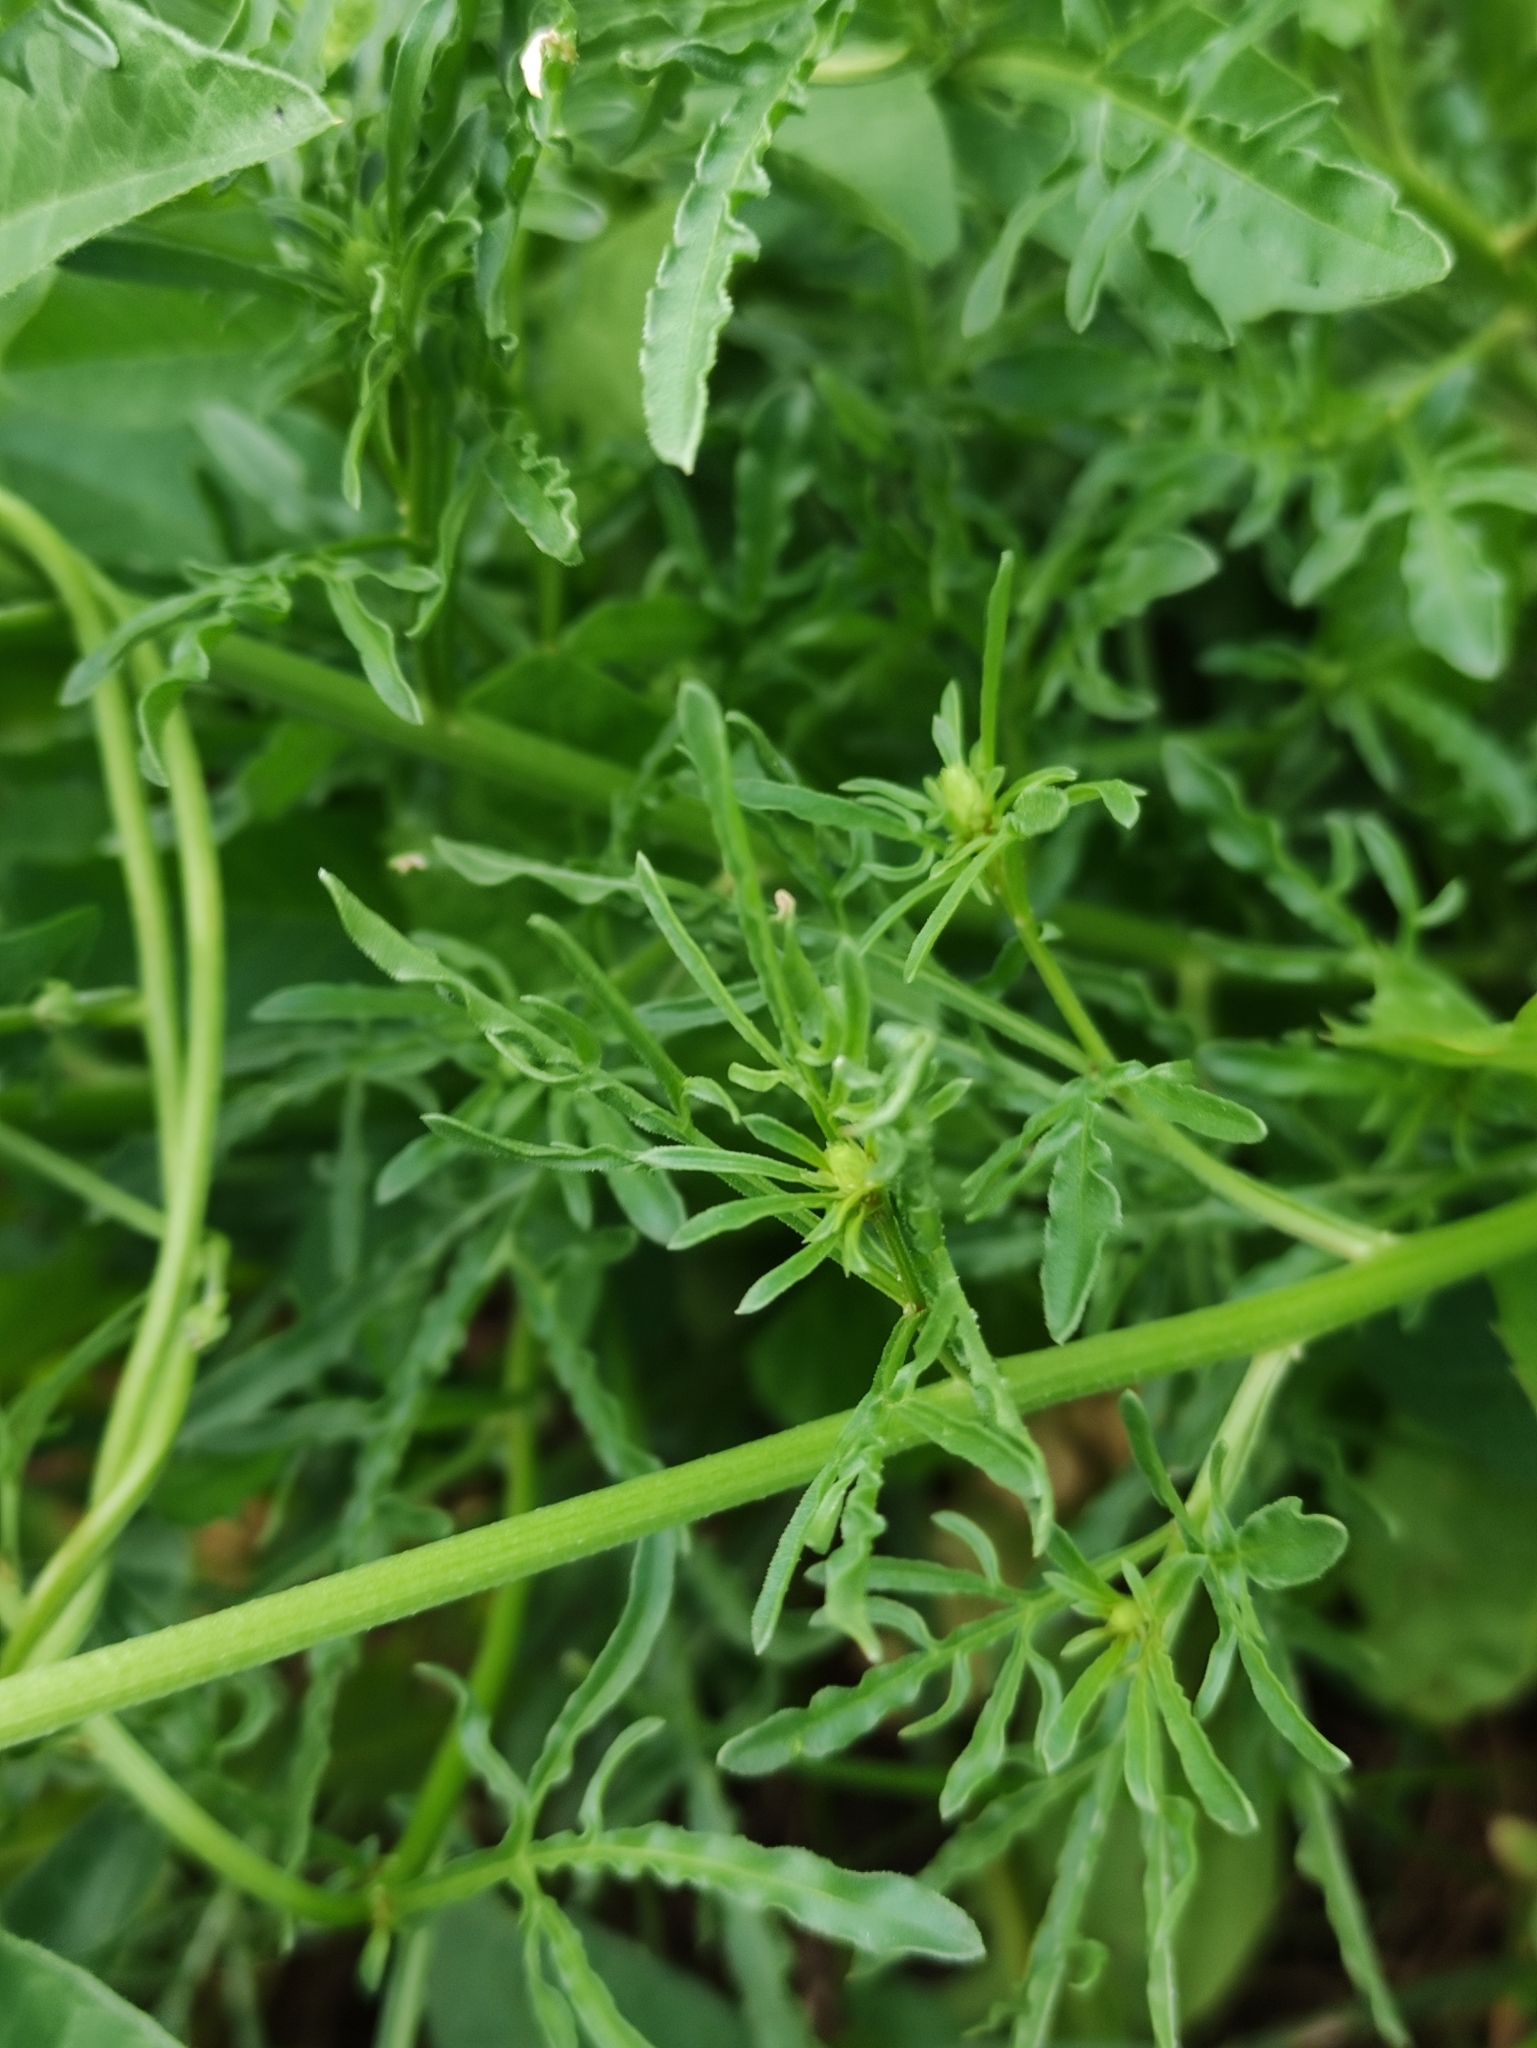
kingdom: Plantae
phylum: Tracheophyta
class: Magnoliopsida
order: Brassicales
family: Resedaceae
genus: Reseda
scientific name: Reseda lutea
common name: Wild mignonette
